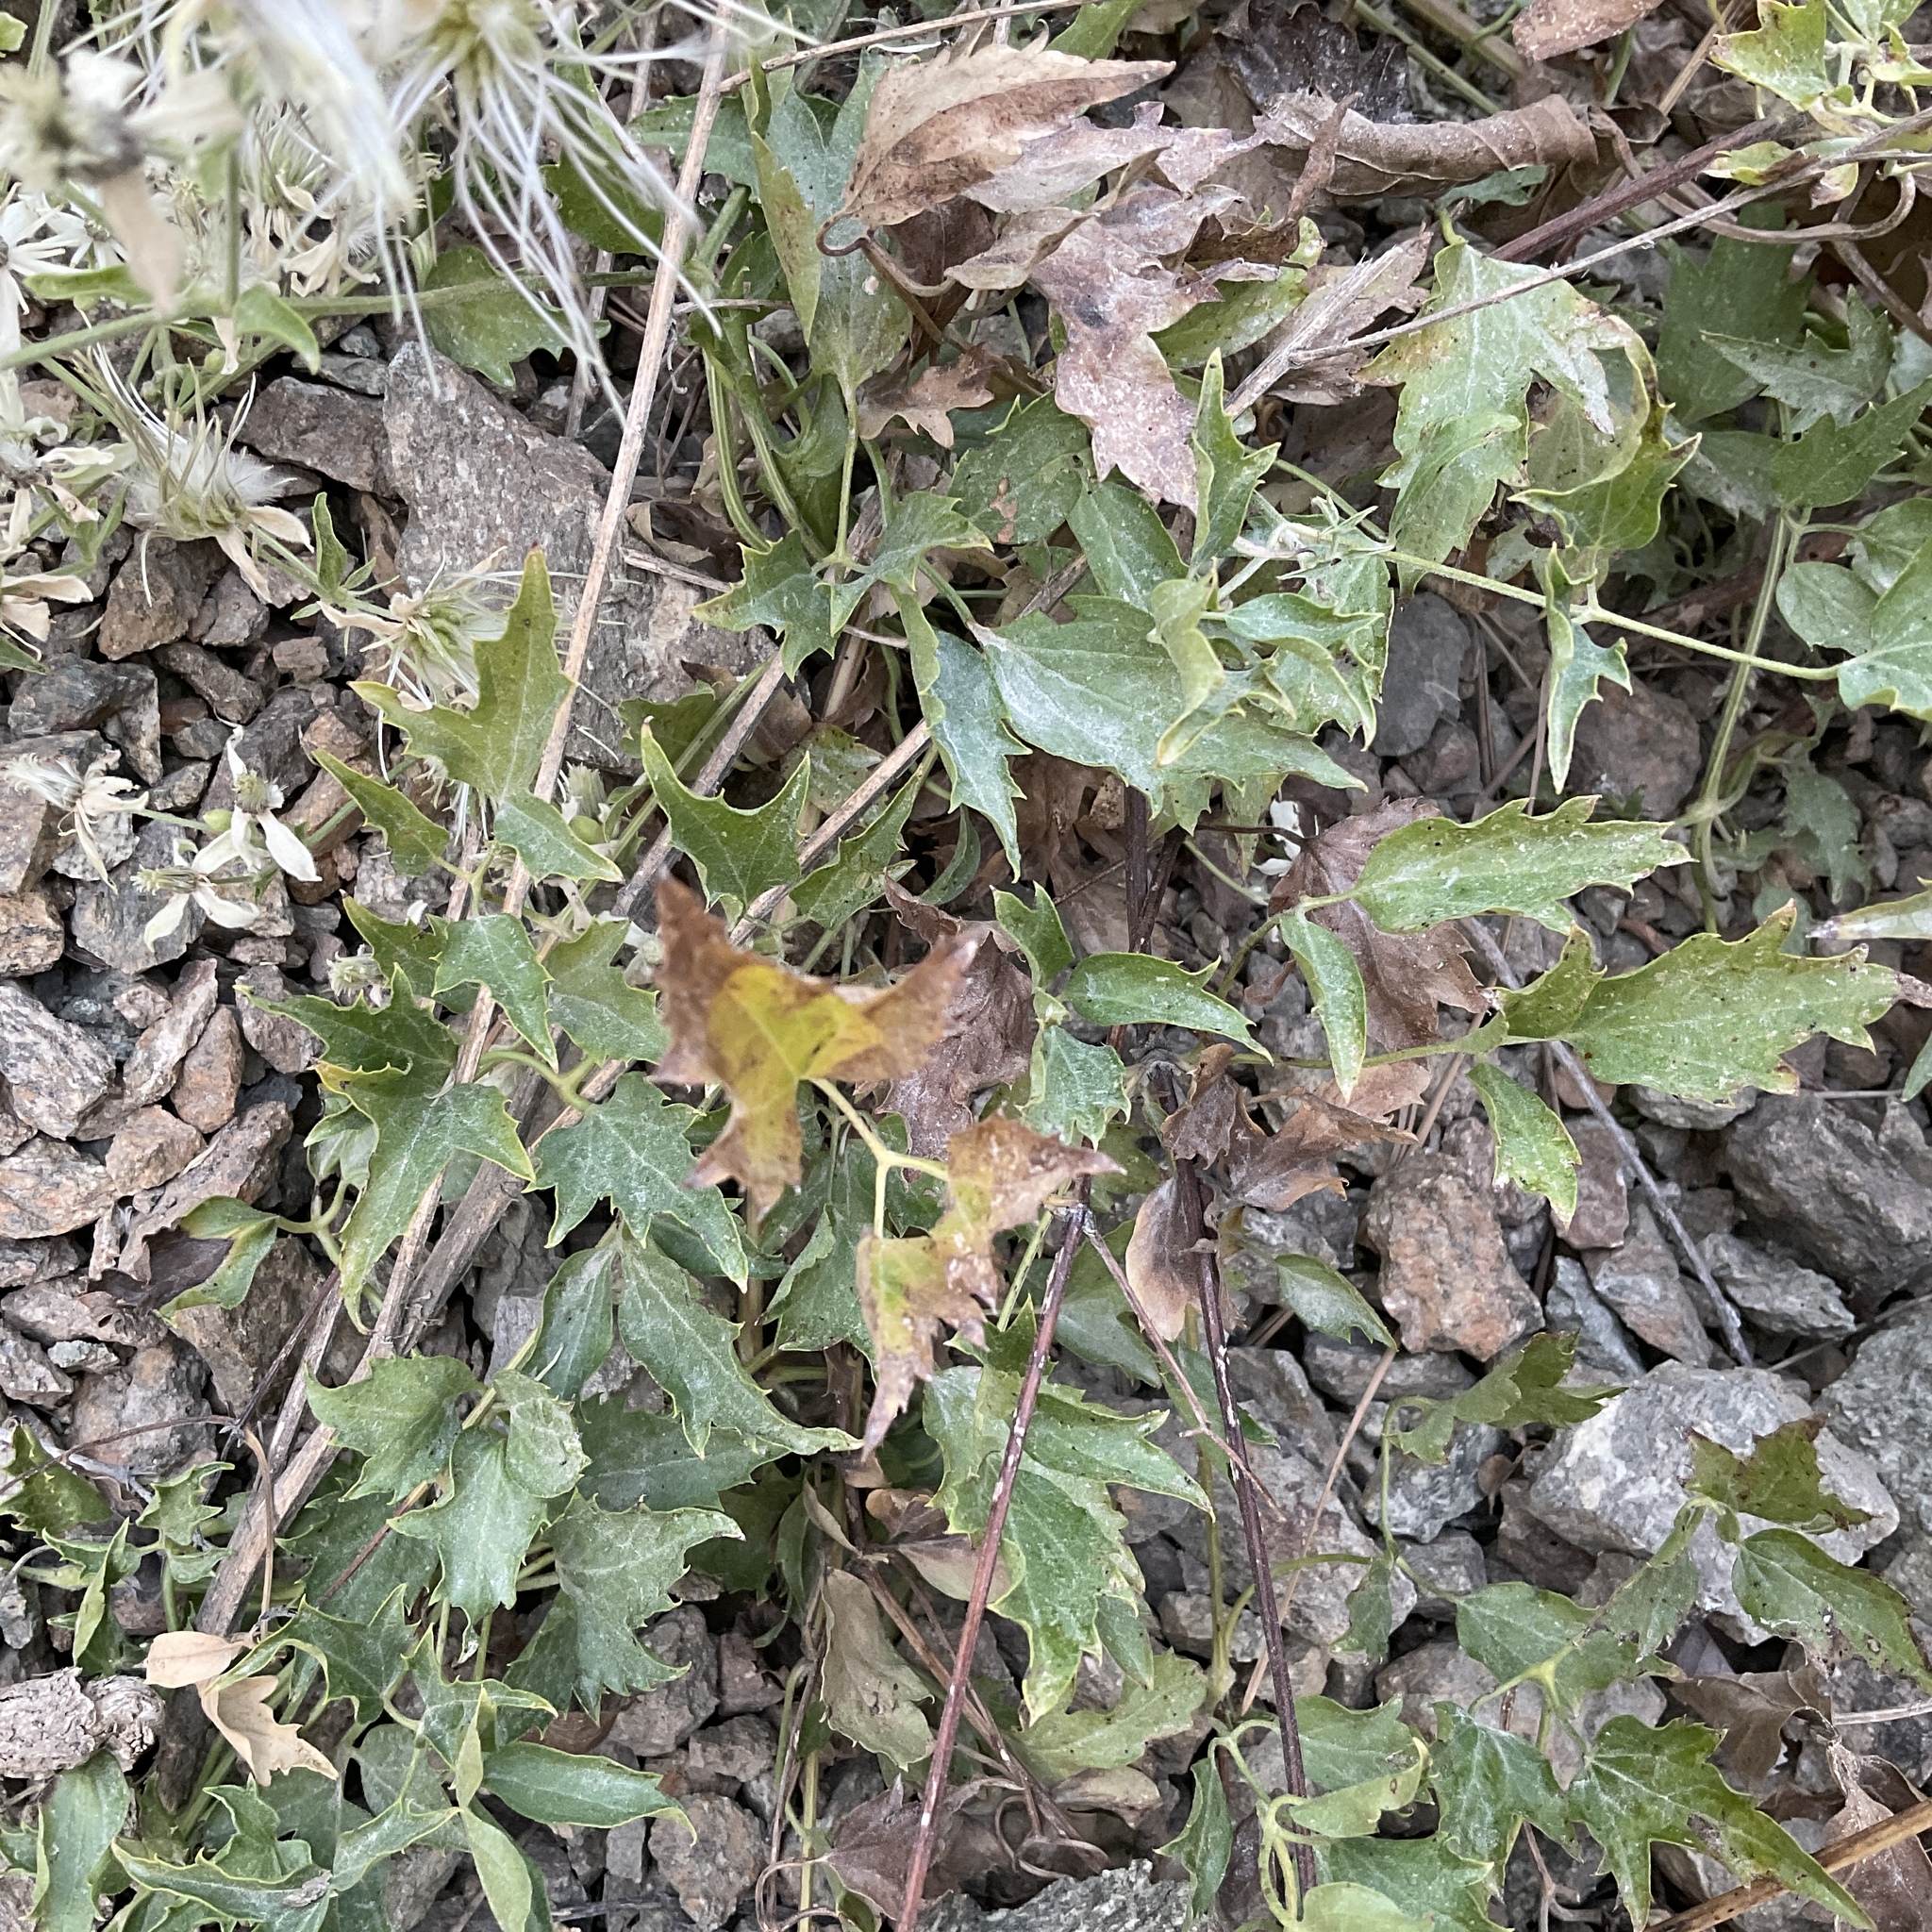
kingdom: Plantae
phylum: Tracheophyta
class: Magnoliopsida
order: Ranunculales
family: Ranunculaceae
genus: Clematis
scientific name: Clematis ligusticifolia
